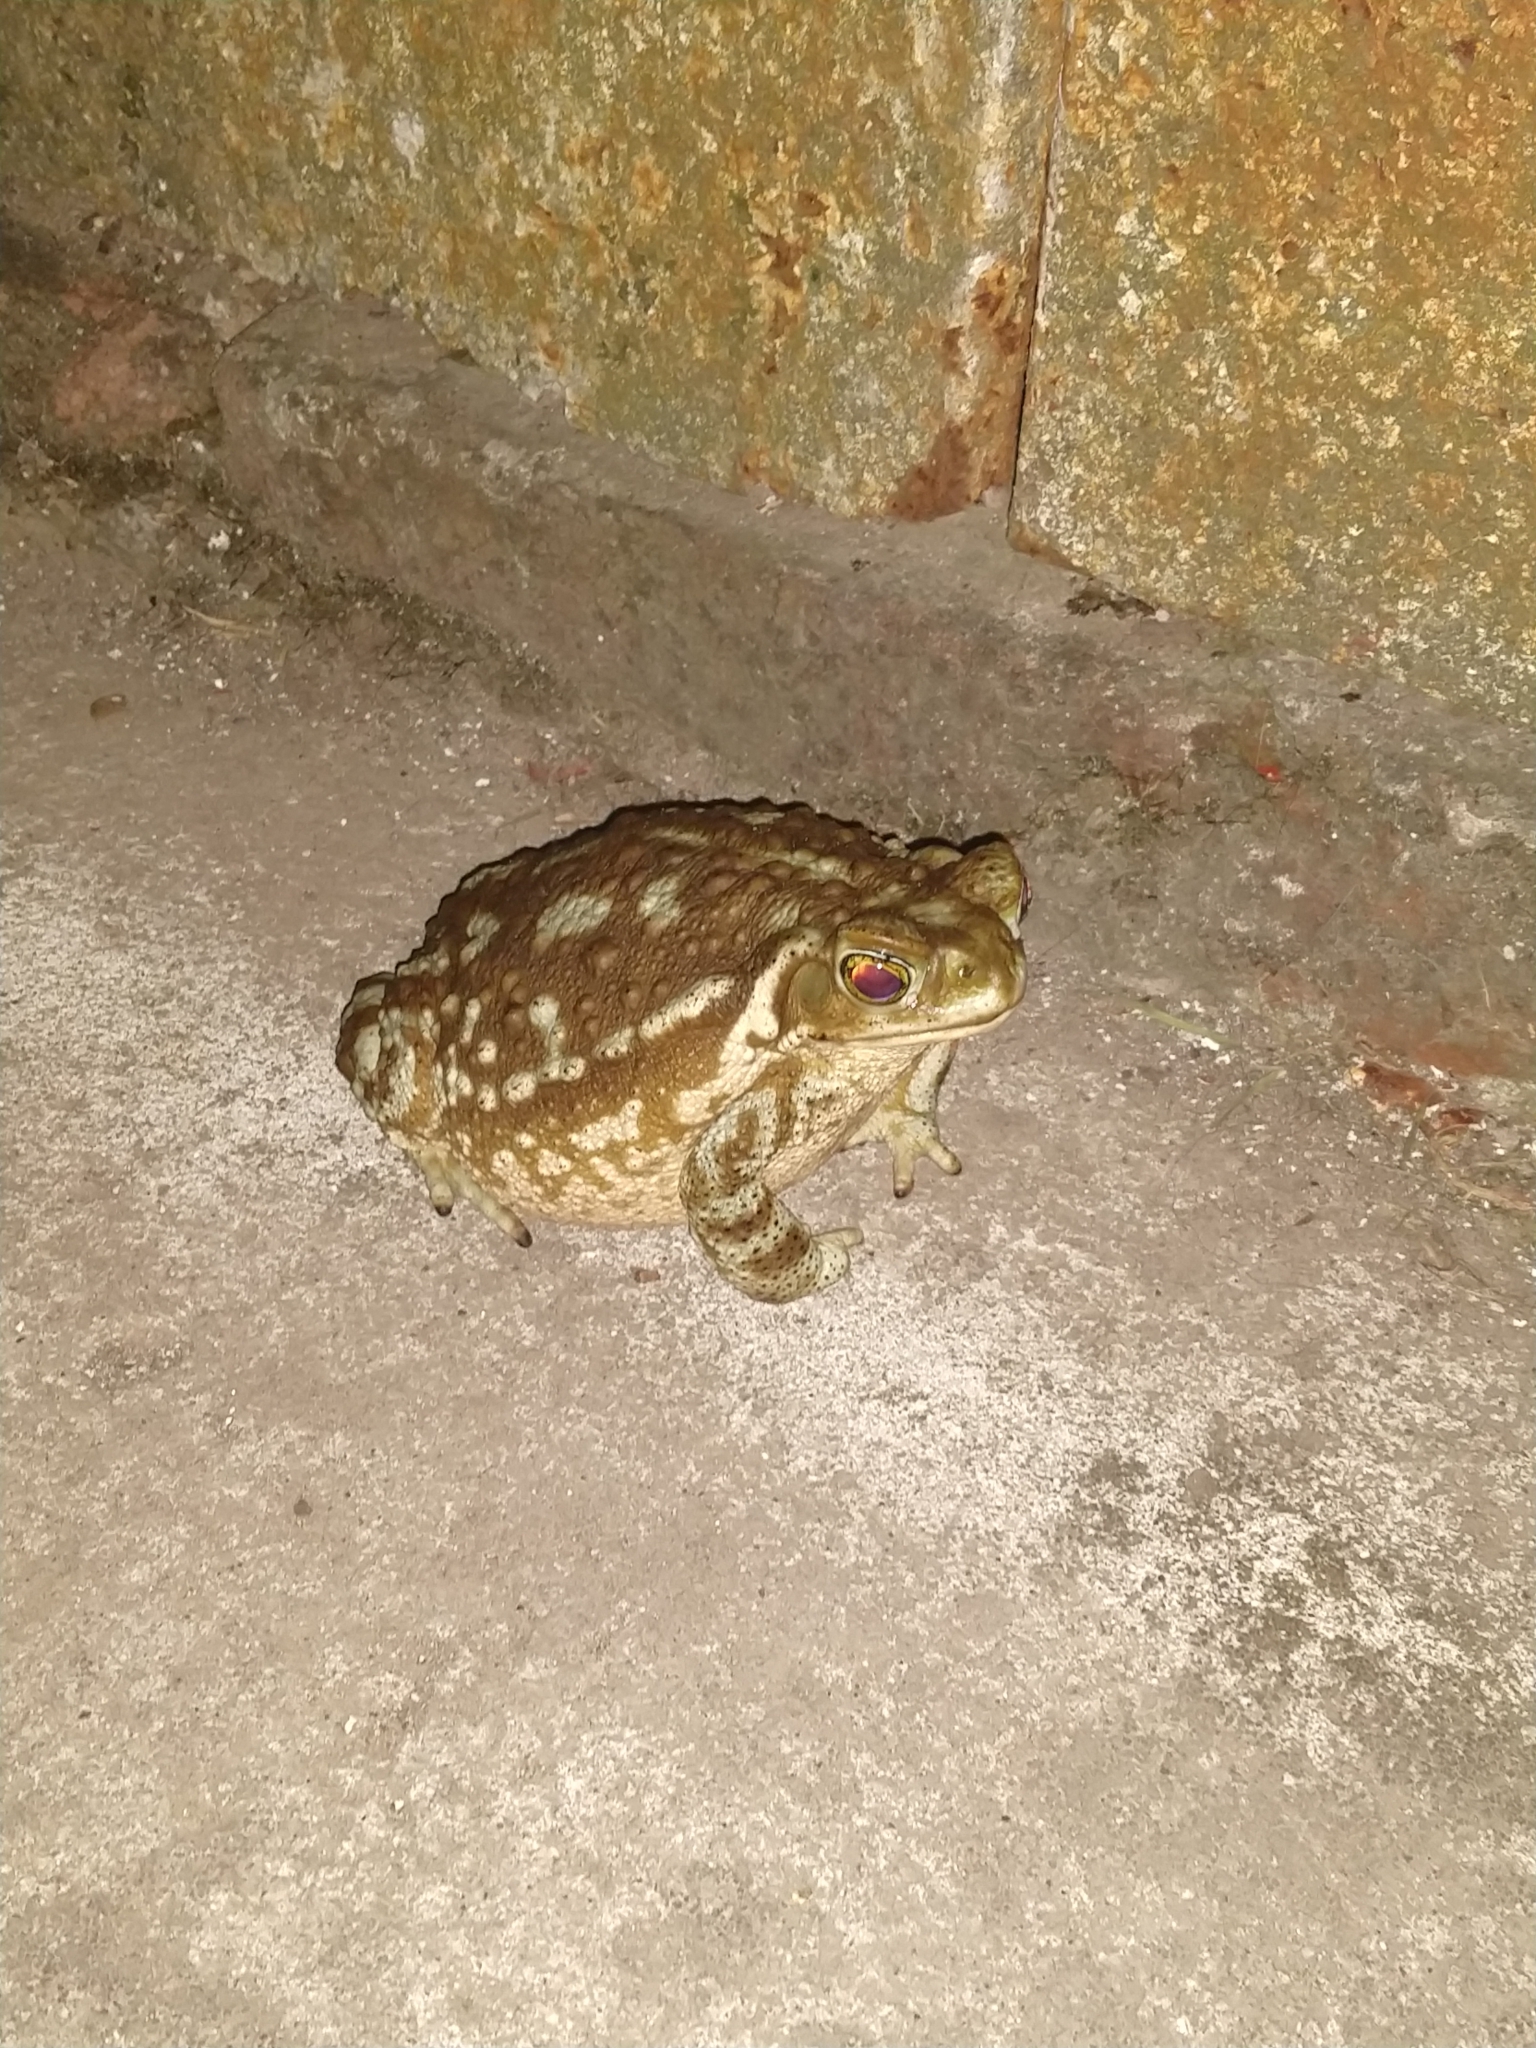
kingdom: Animalia
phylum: Chordata
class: Amphibia
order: Anura
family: Bufonidae
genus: Rhinella
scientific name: Rhinella arenarum
